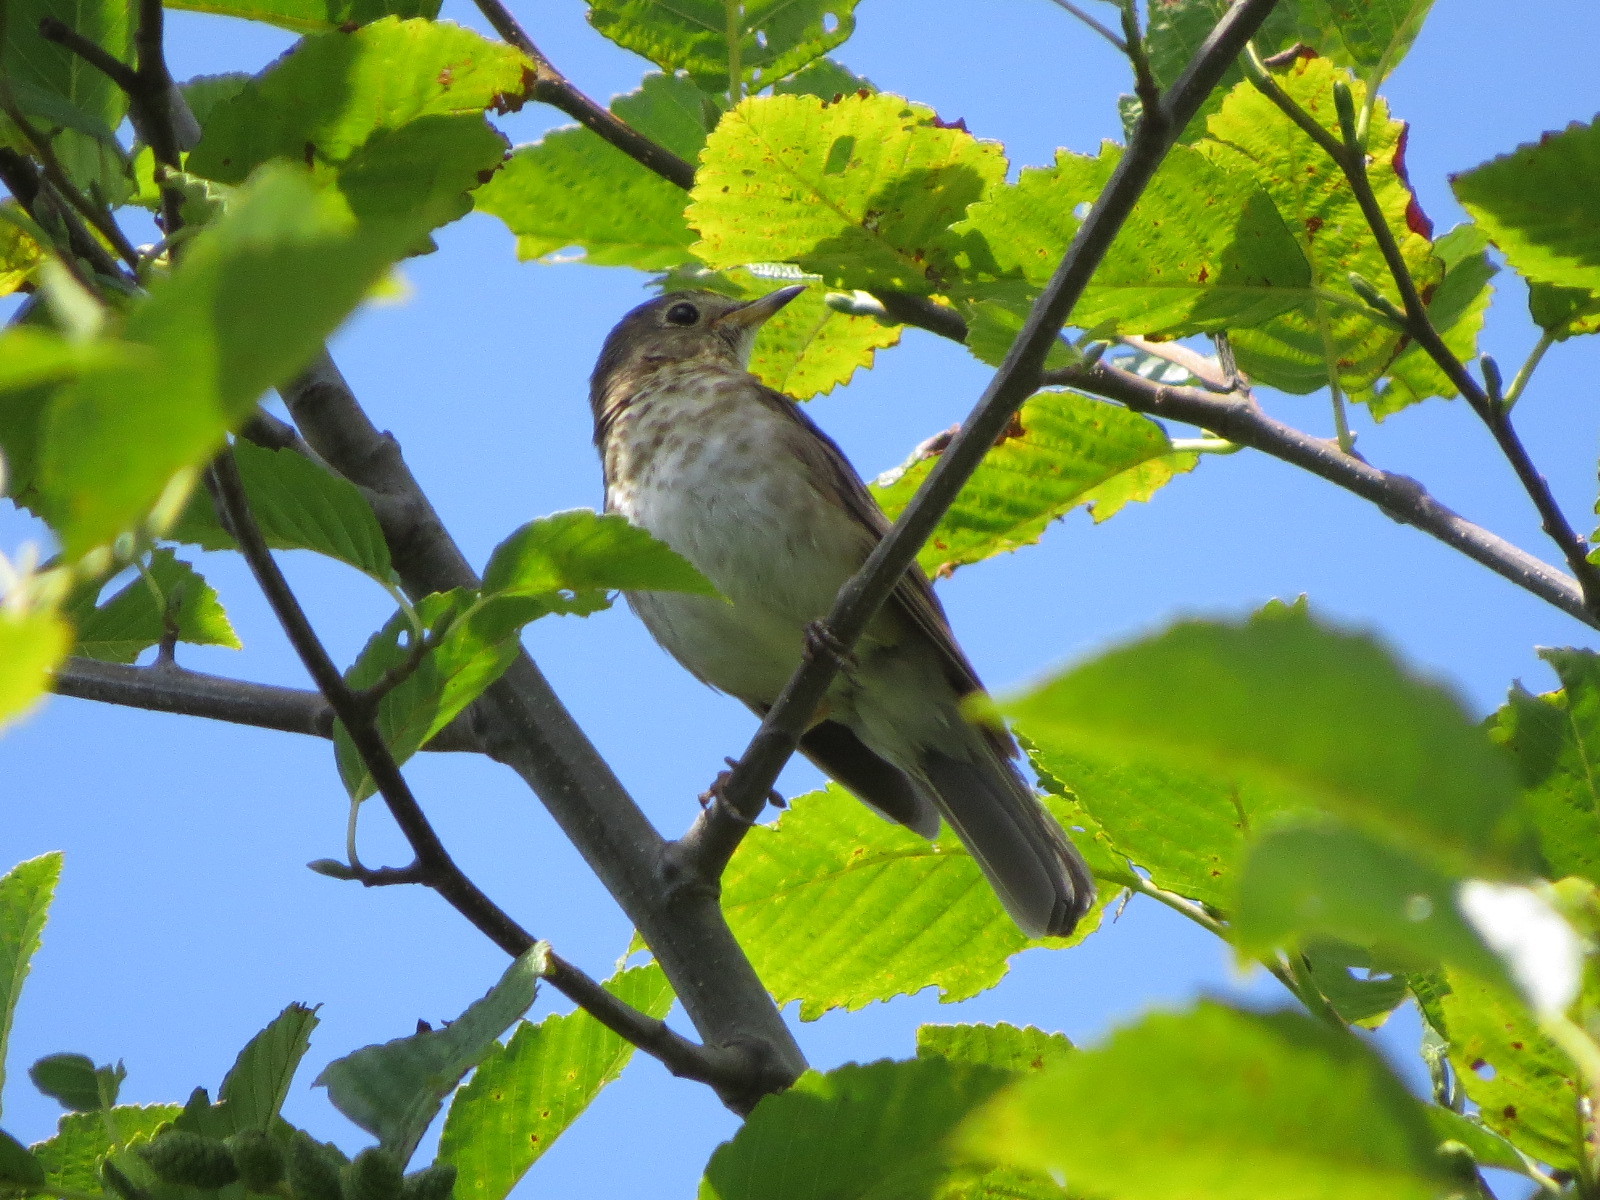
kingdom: Animalia
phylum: Chordata
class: Aves
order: Passeriformes
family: Turdidae
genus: Catharus
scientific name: Catharus ustulatus
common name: Swainson's thrush
